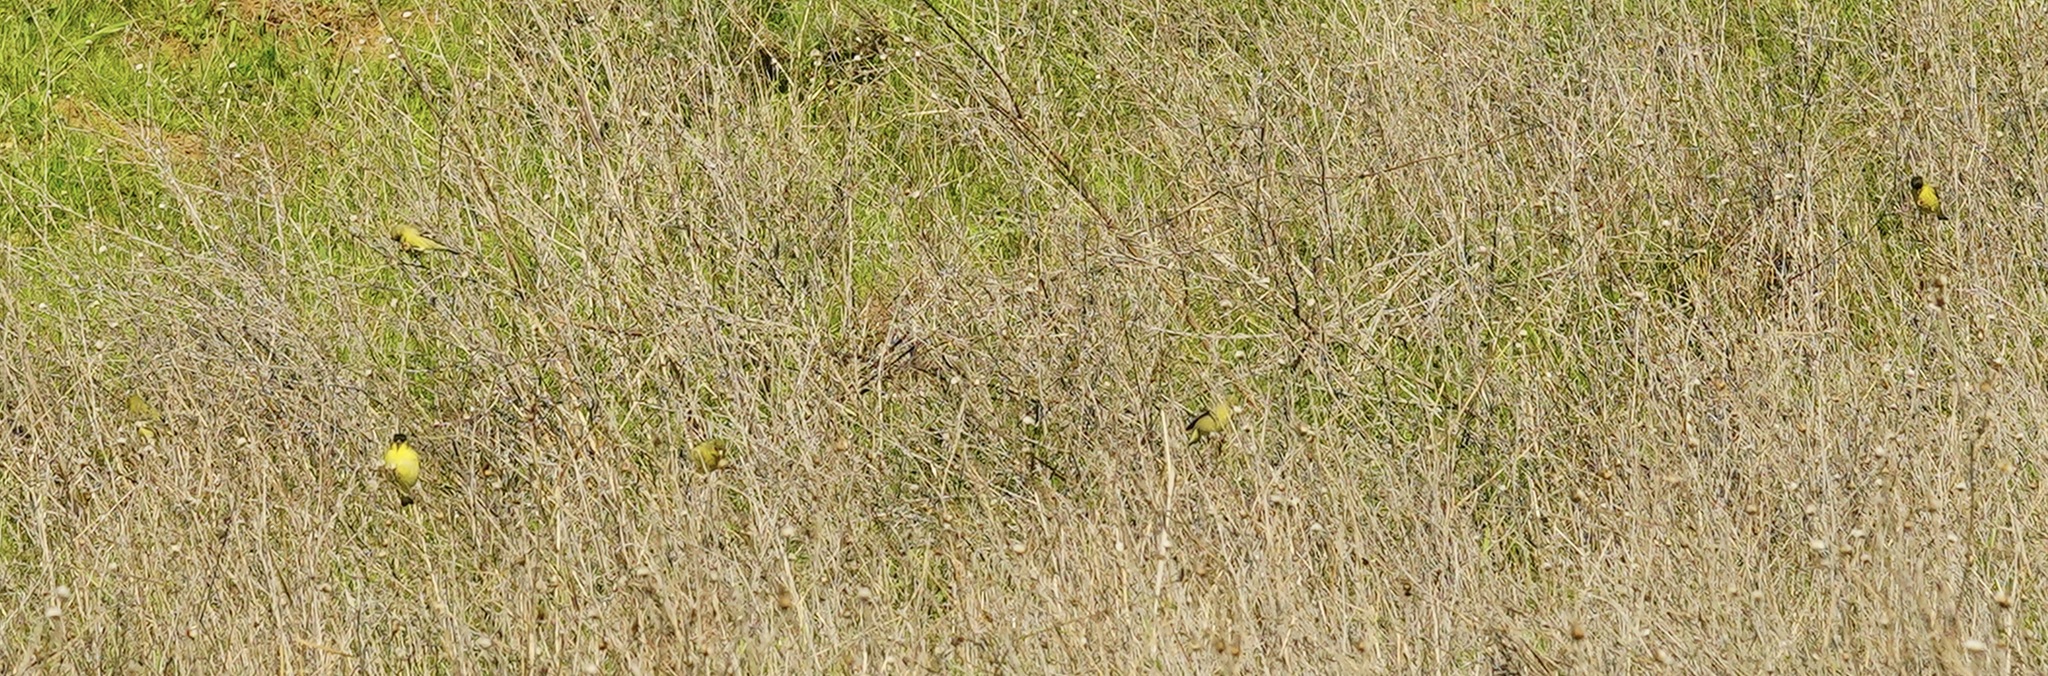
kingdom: Animalia
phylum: Chordata
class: Aves
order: Passeriformes
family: Fringillidae
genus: Spinus
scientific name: Spinus psaltria
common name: Lesser goldfinch
